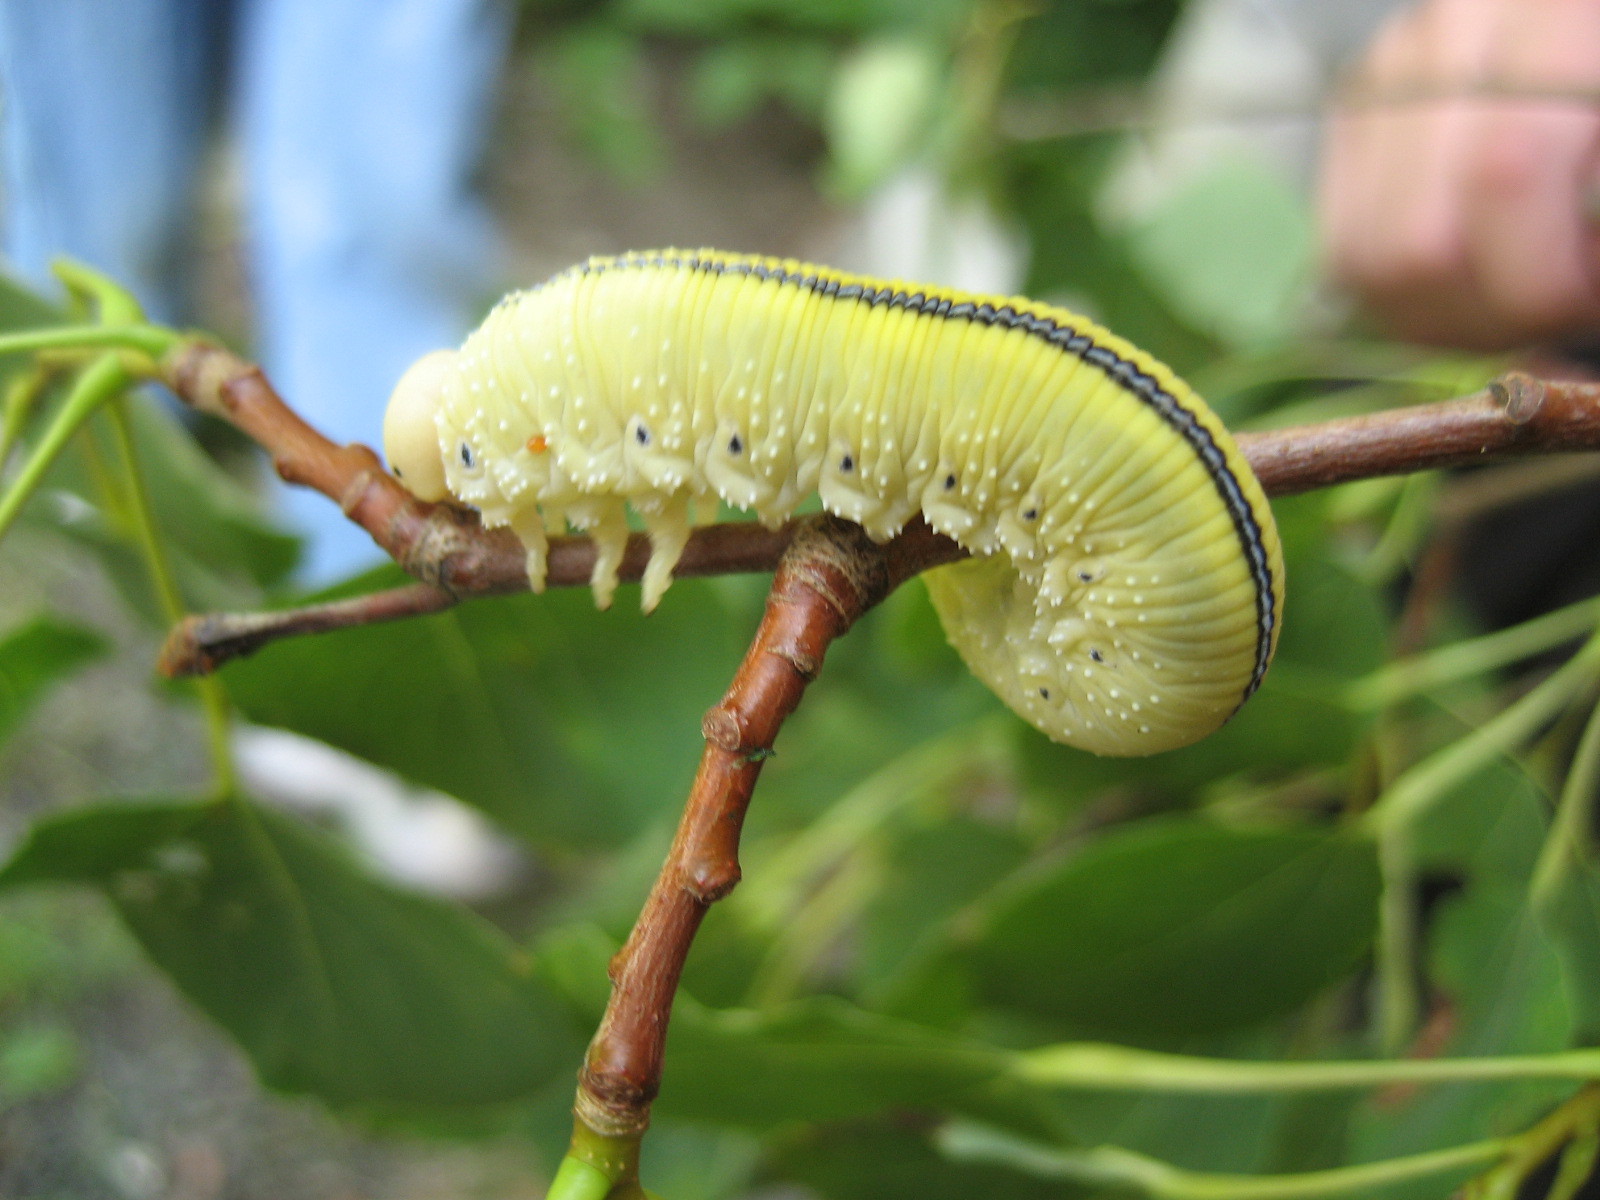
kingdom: Animalia
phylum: Arthropoda
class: Insecta
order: Hymenoptera
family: Cimbicidae
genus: Cimbex
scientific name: Cimbex americana
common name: Elm sawfly
